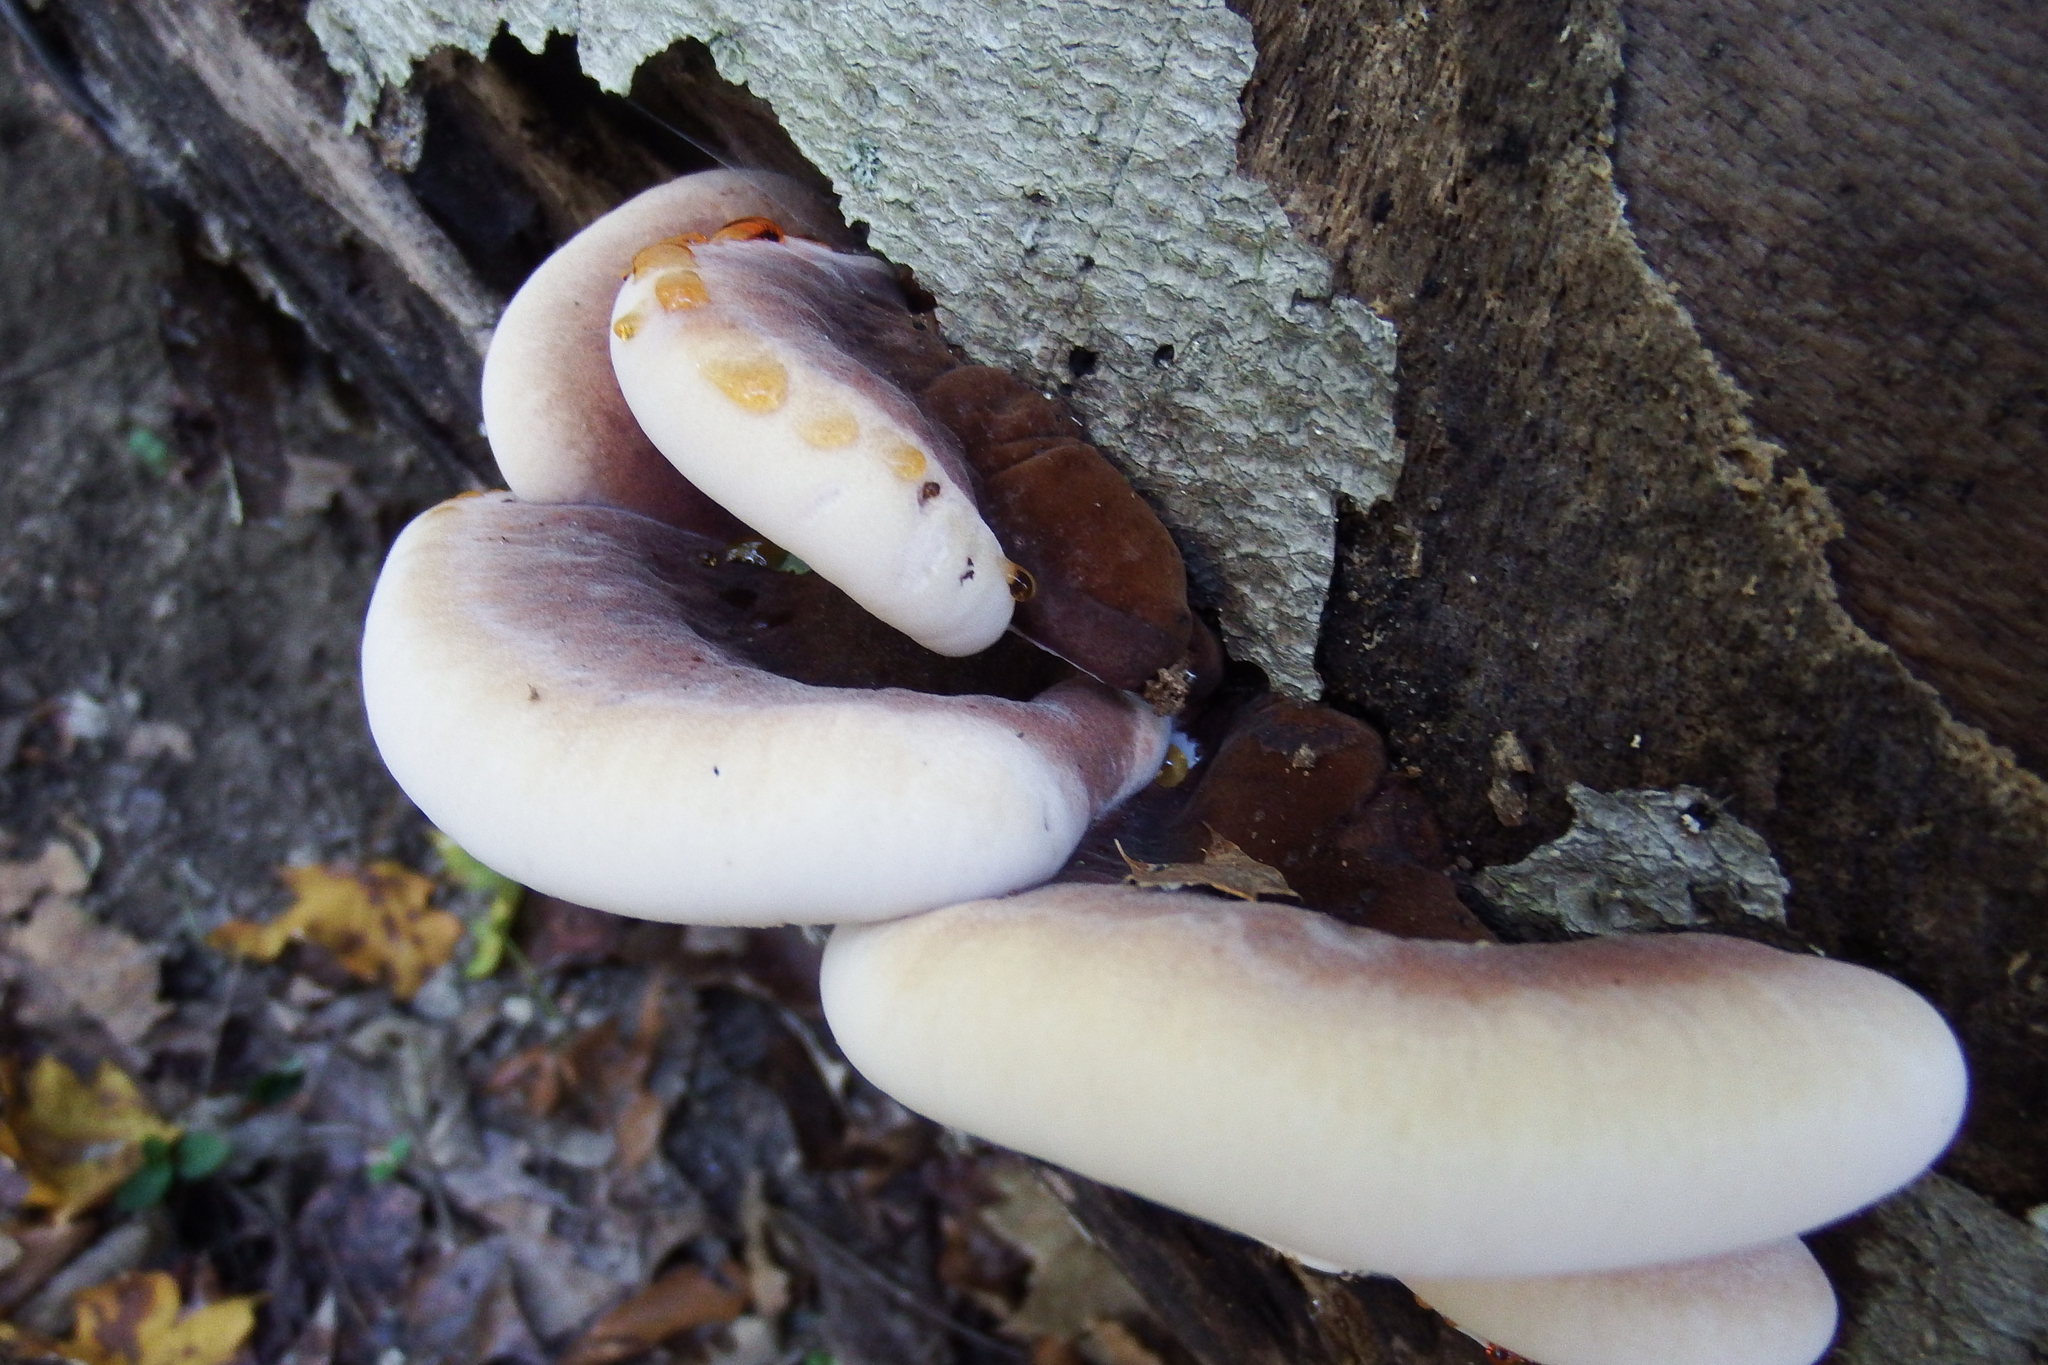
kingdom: Fungi
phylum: Basidiomycota
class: Agaricomycetes
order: Polyporales
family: Ischnodermataceae
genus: Ischnoderma
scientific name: Ischnoderma resinosum
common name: Resinous polypore
